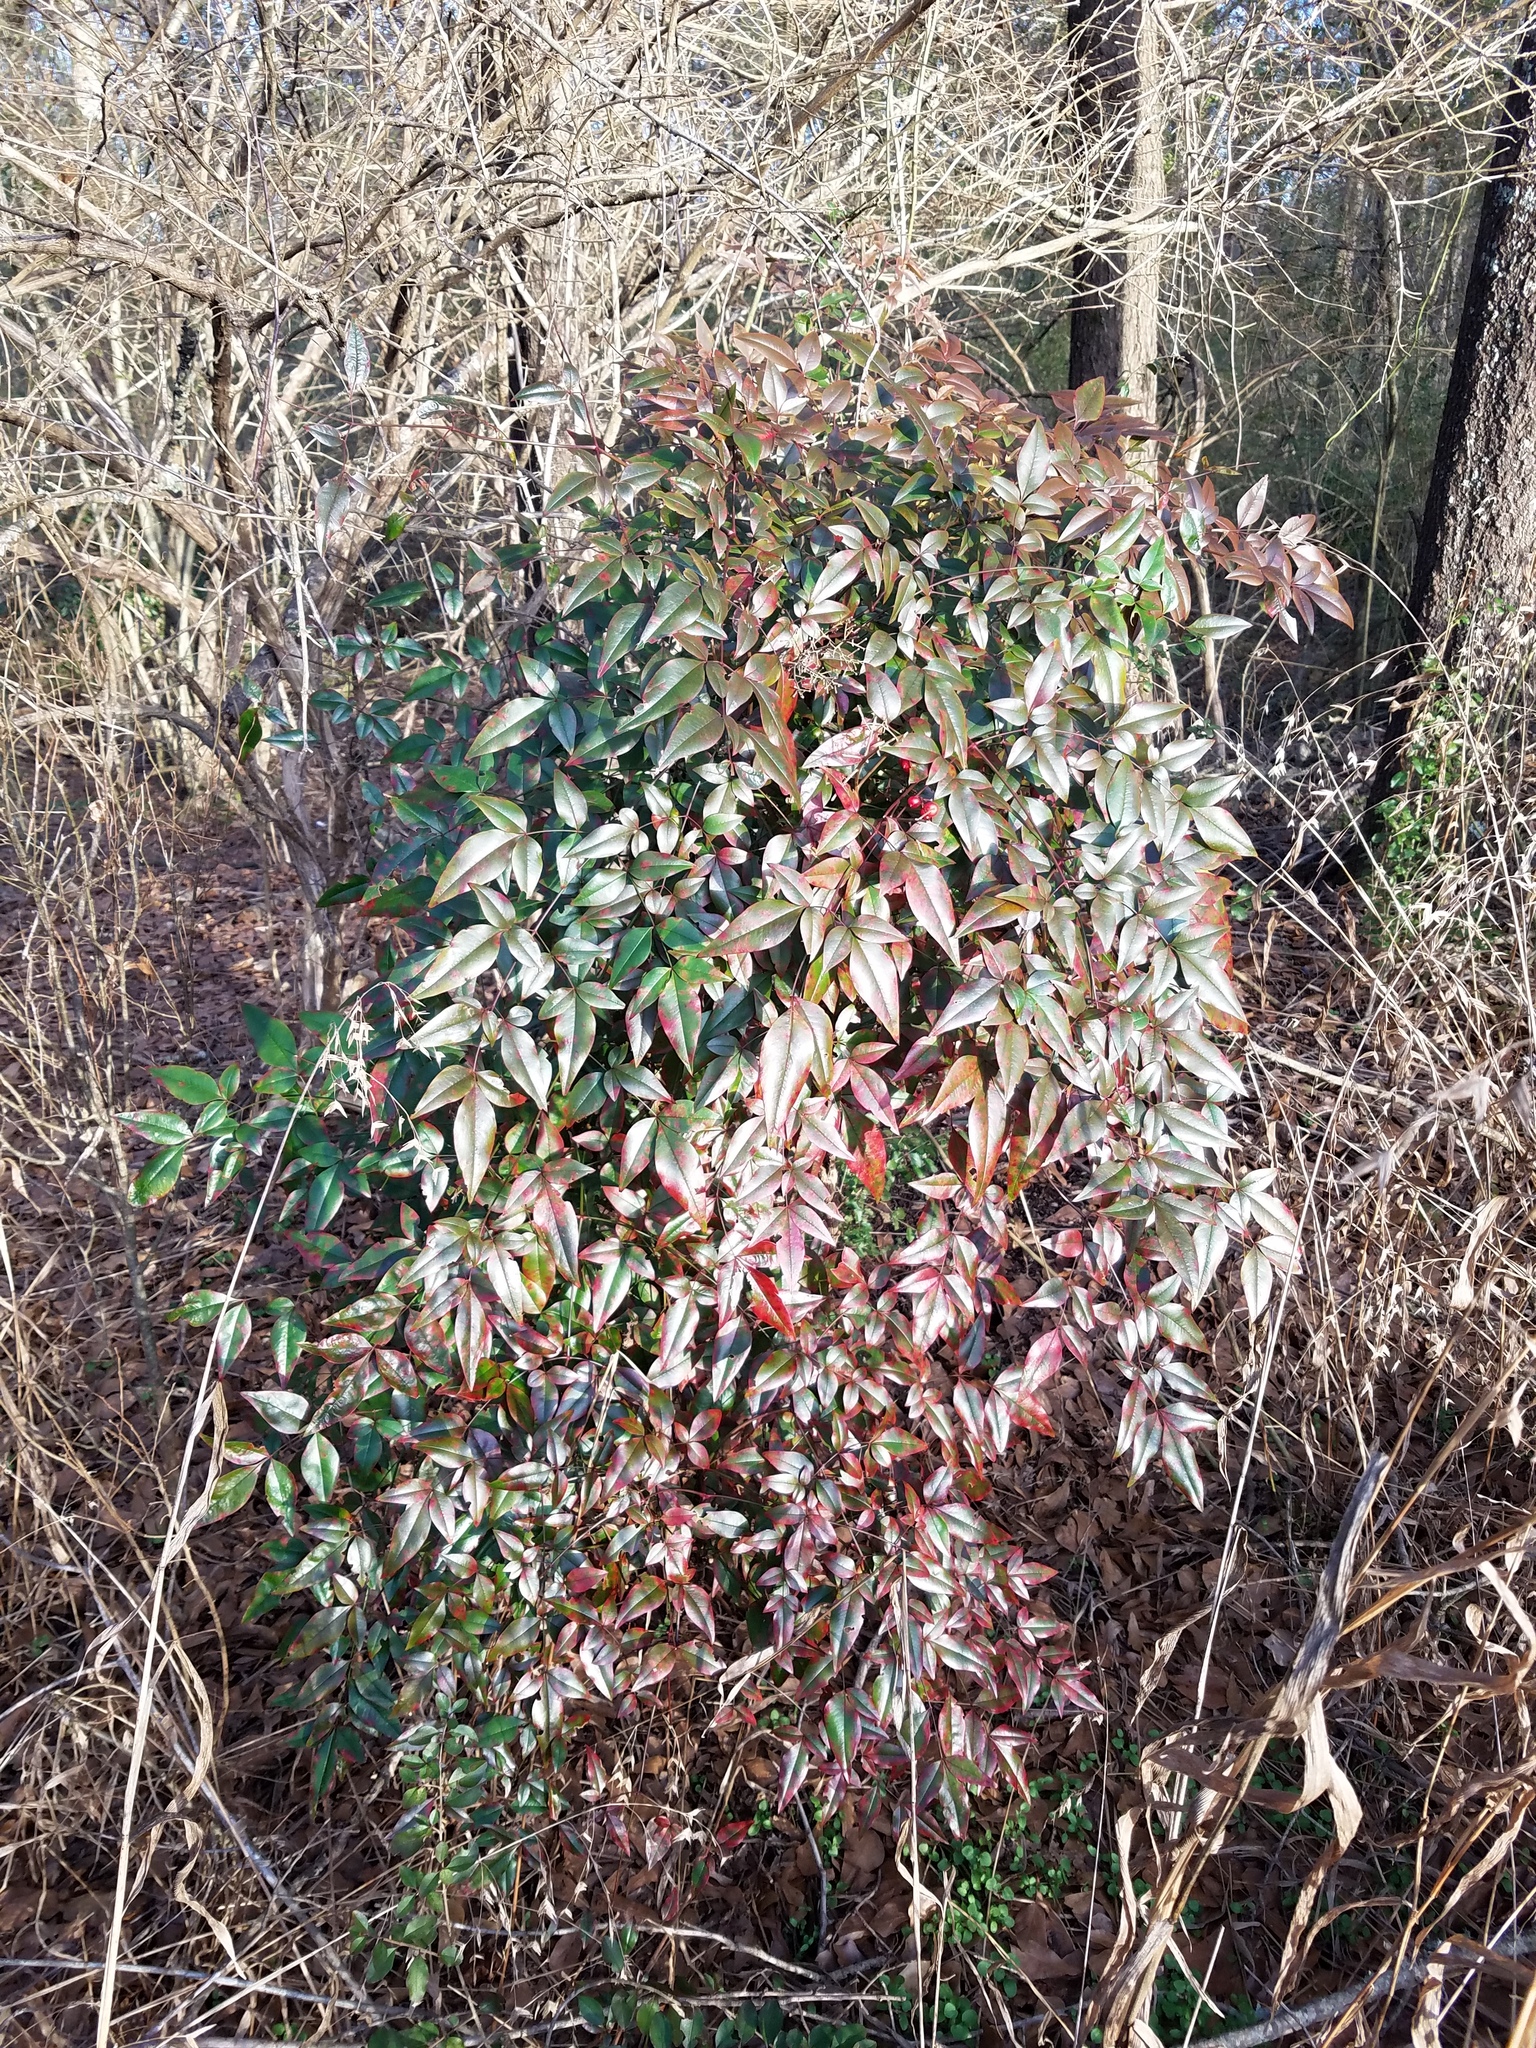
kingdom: Plantae
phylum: Tracheophyta
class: Magnoliopsida
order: Ranunculales
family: Berberidaceae
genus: Nandina
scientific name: Nandina domestica
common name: Sacred bamboo
